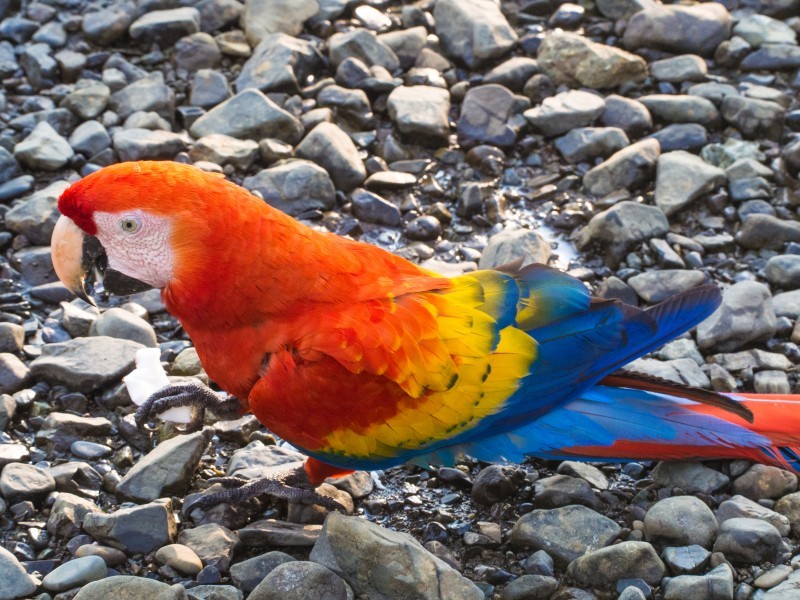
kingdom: Animalia
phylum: Chordata
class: Aves
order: Psittaciformes
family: Psittacidae
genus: Ara
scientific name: Ara macao
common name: Scarlet macaw
